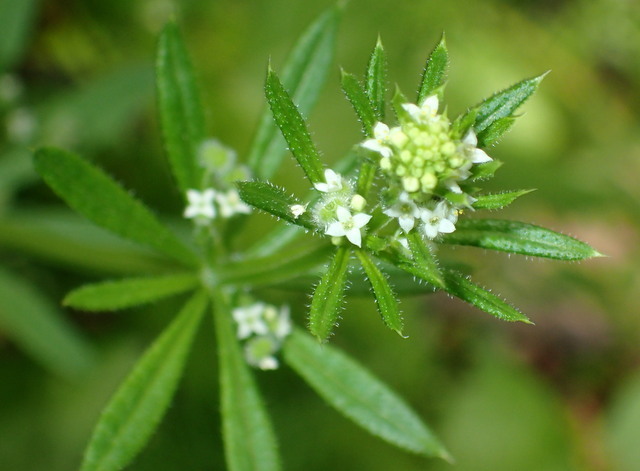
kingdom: Plantae
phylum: Tracheophyta
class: Magnoliopsida
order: Gentianales
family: Rubiaceae
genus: Galium
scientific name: Galium aparine
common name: Cleavers
